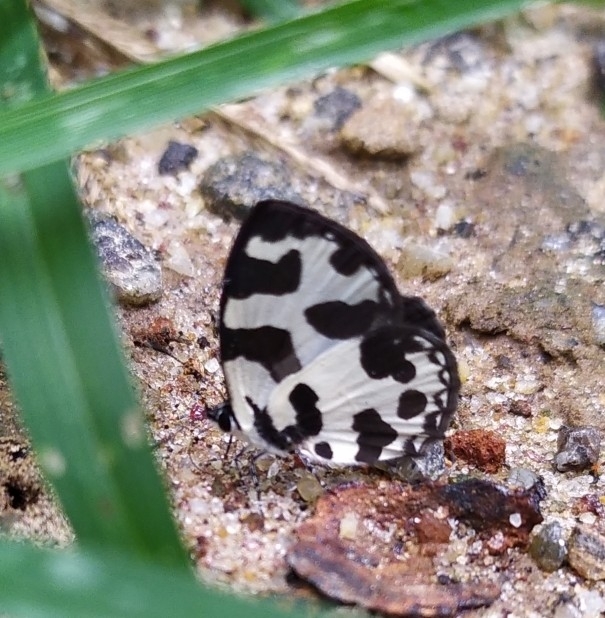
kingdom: Animalia
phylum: Arthropoda
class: Insecta
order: Lepidoptera
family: Lycaenidae
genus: Caleta
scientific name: Caleta decidia
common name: Angled pierrot
